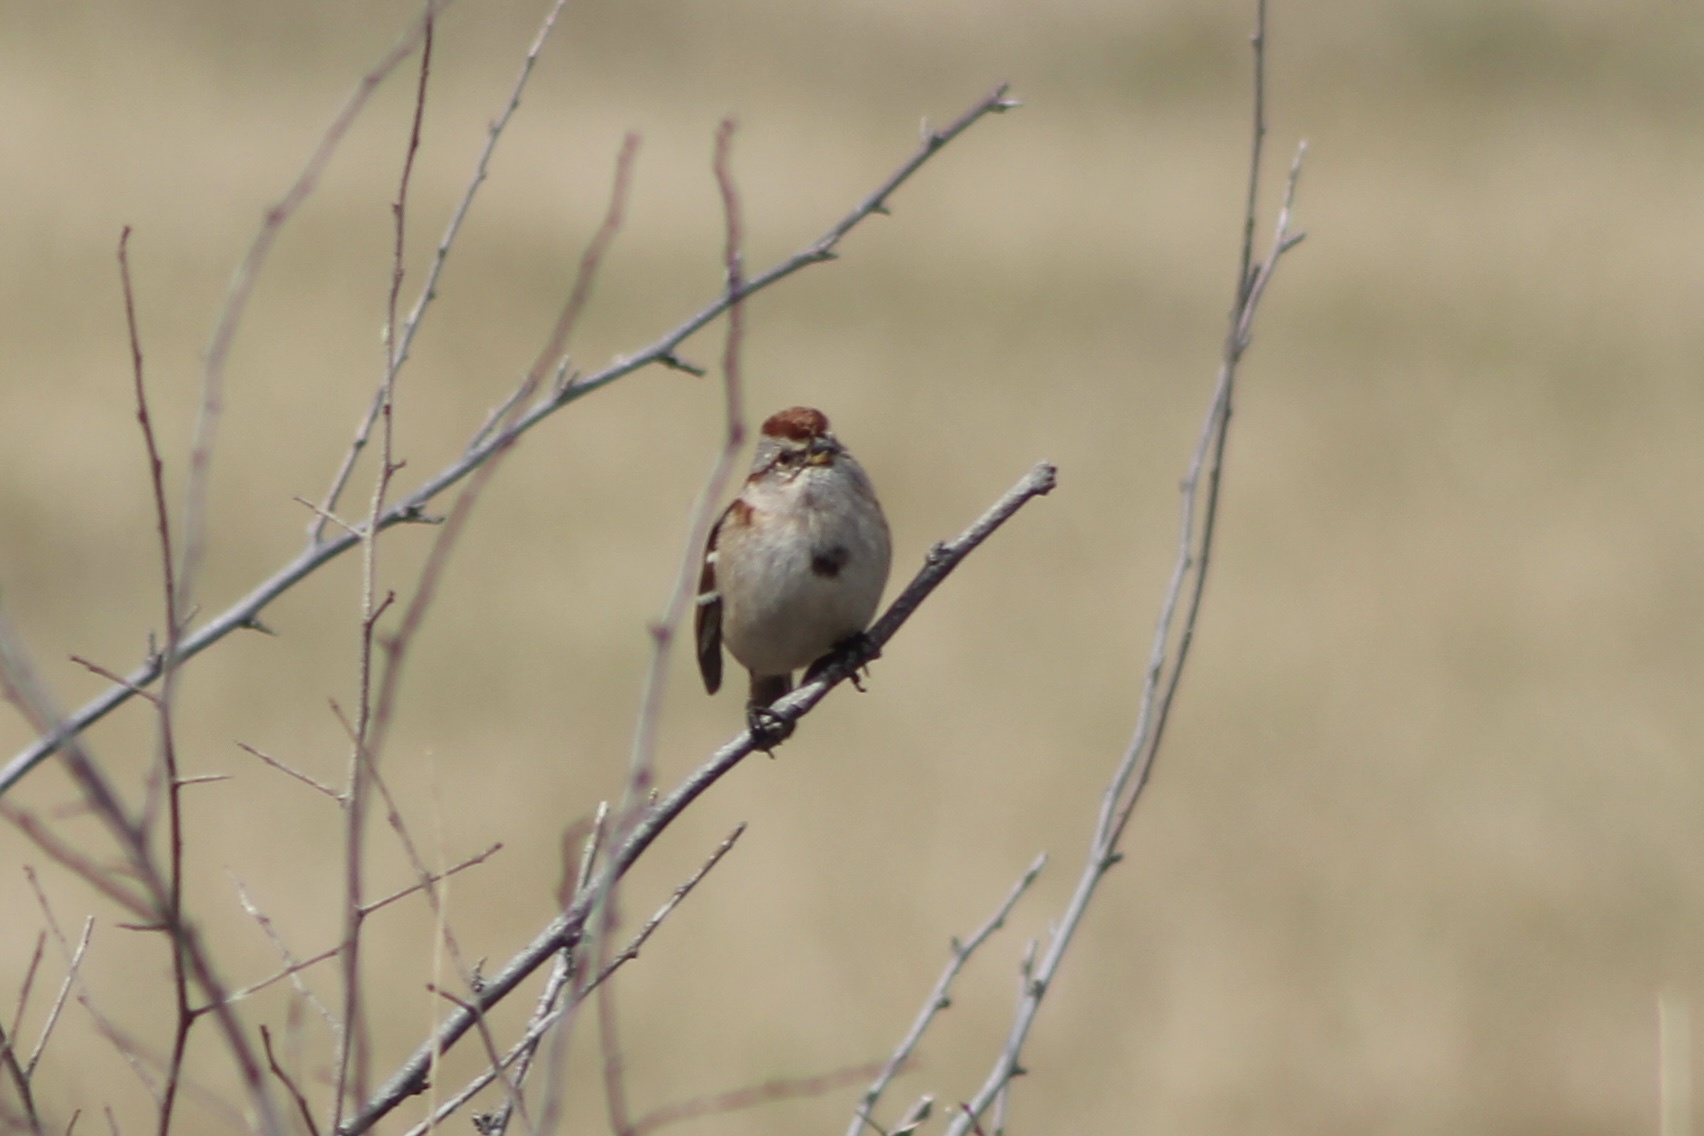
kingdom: Animalia
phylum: Chordata
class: Aves
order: Passeriformes
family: Passerellidae
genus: Spizelloides
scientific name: Spizelloides arborea
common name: American tree sparrow
